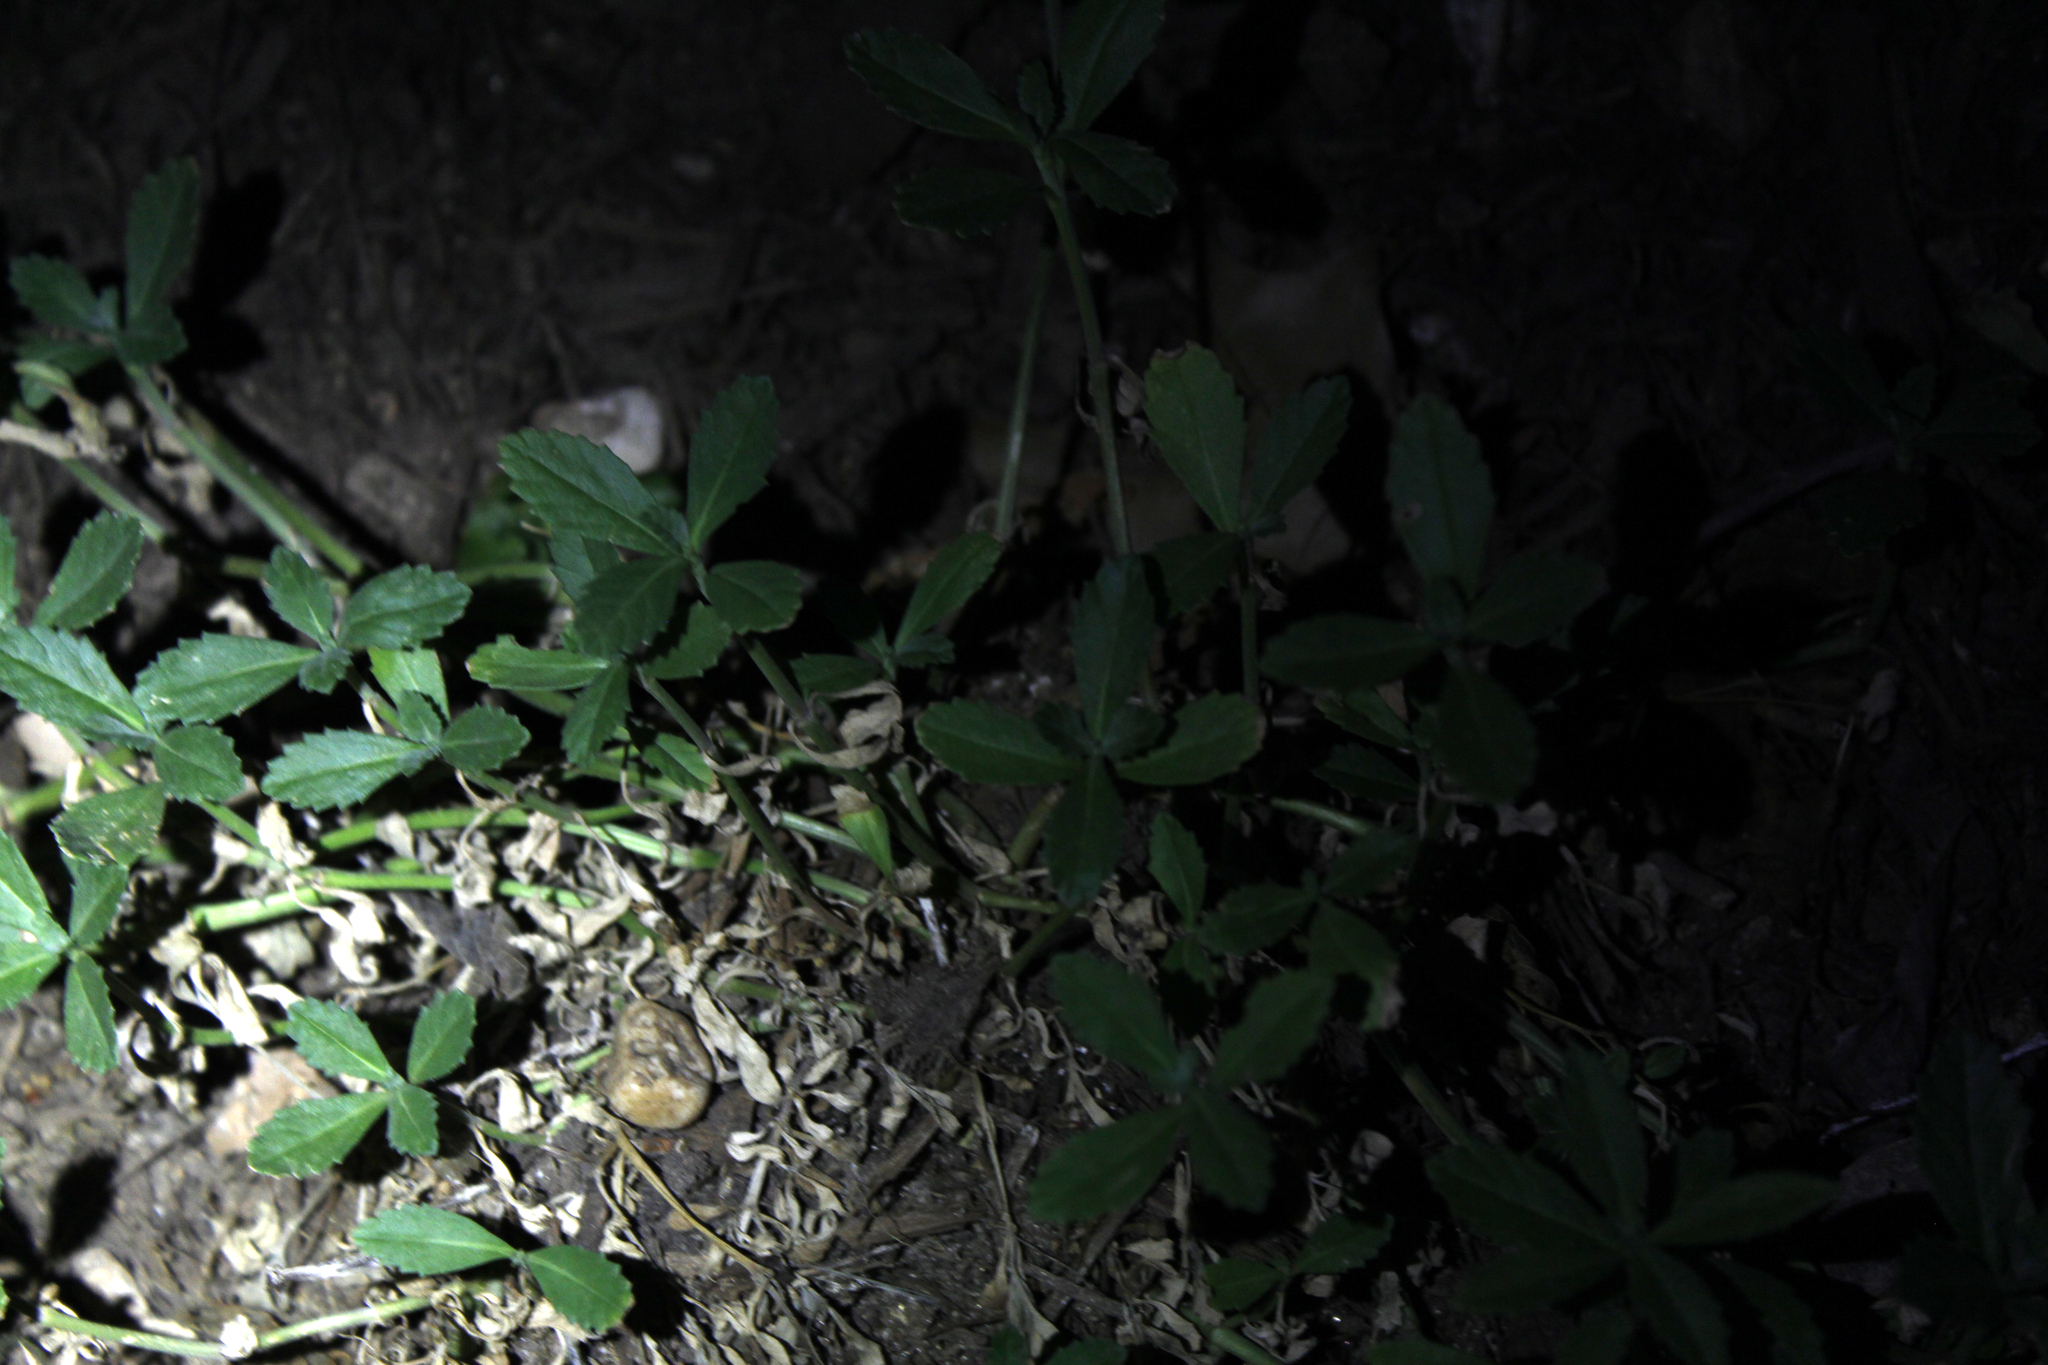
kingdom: Plantae
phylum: Tracheophyta
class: Magnoliopsida
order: Lamiales
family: Verbenaceae
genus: Phyla
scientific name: Phyla nodiflora
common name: Frogfruit
